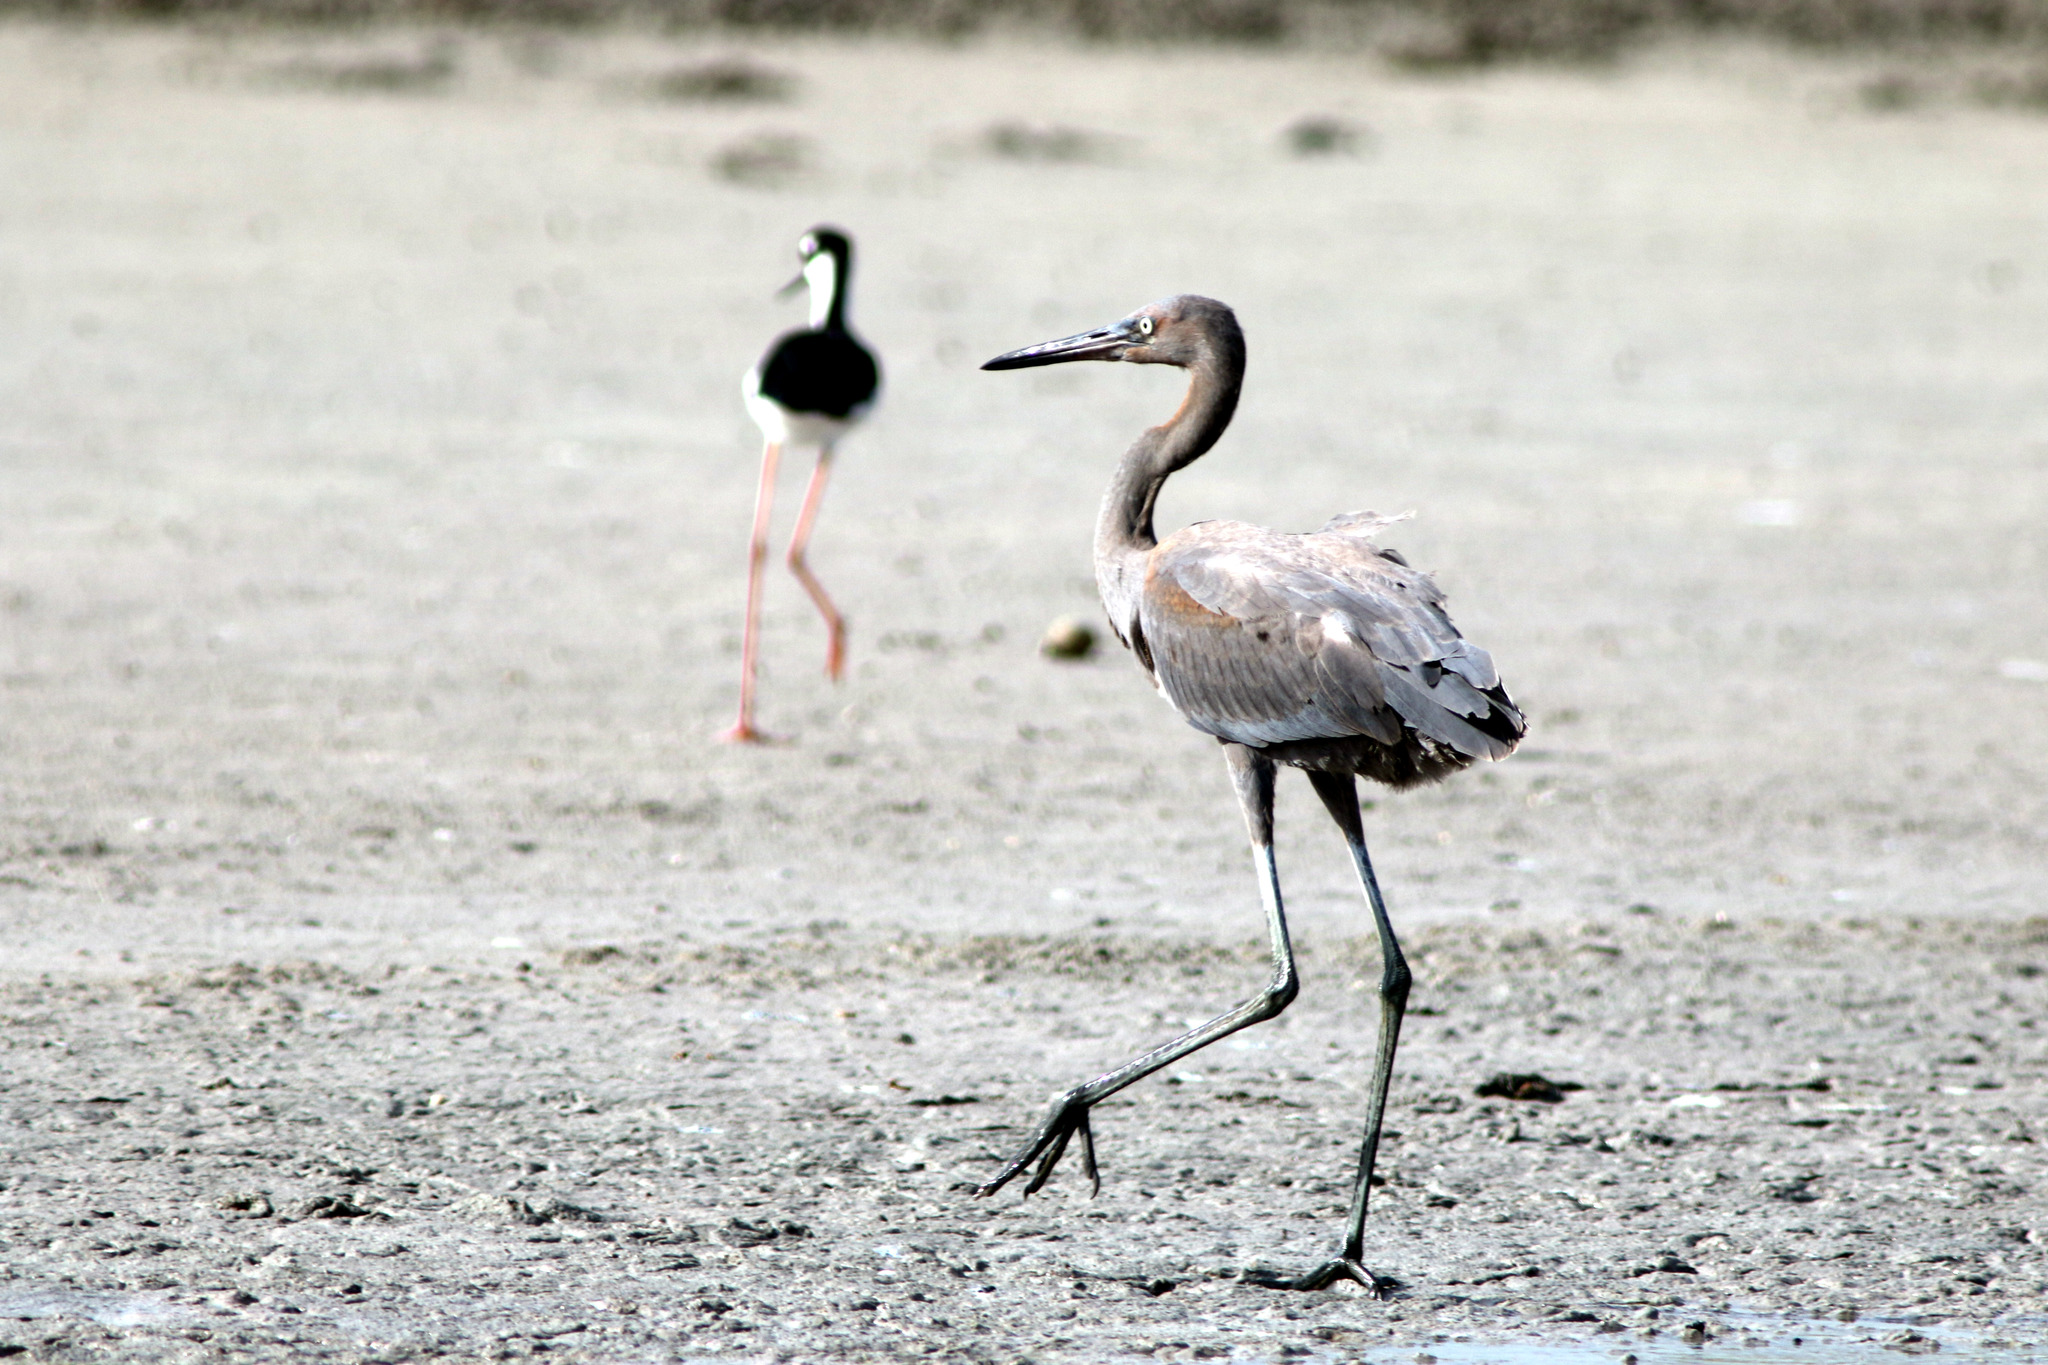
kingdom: Animalia
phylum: Chordata
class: Aves
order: Pelecaniformes
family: Ardeidae
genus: Egretta
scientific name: Egretta rufescens
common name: Reddish egret
